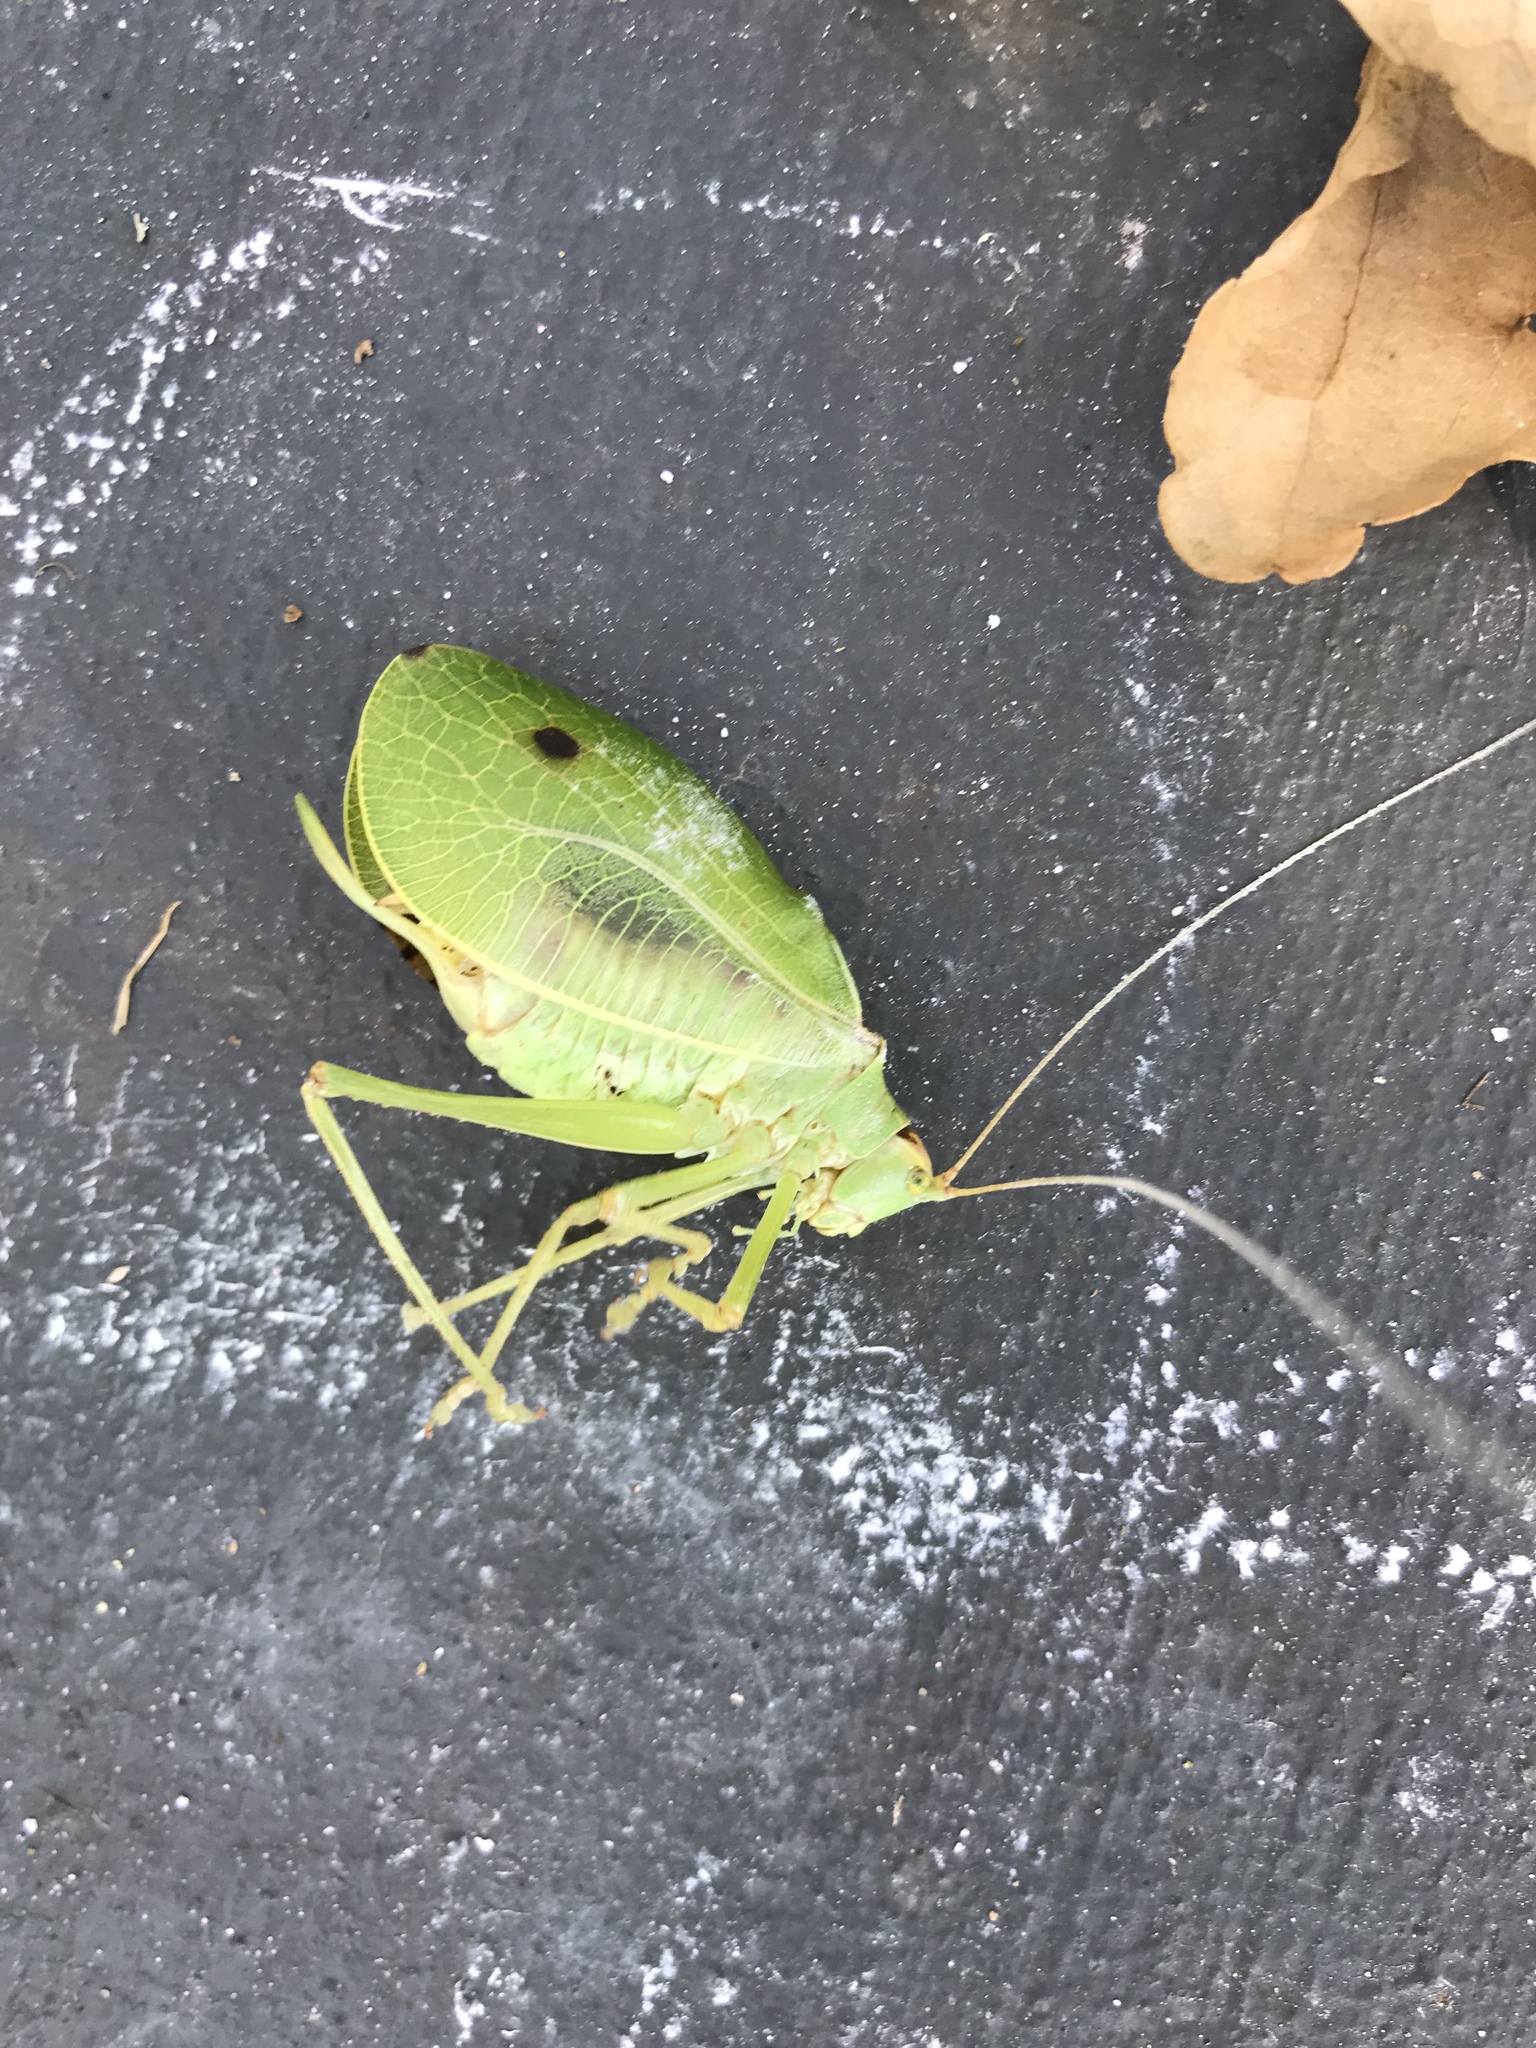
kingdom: Animalia
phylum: Arthropoda
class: Insecta
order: Orthoptera
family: Tettigoniidae
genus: Pterophylla
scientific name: Pterophylla camellifolia
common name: Common true katydid
